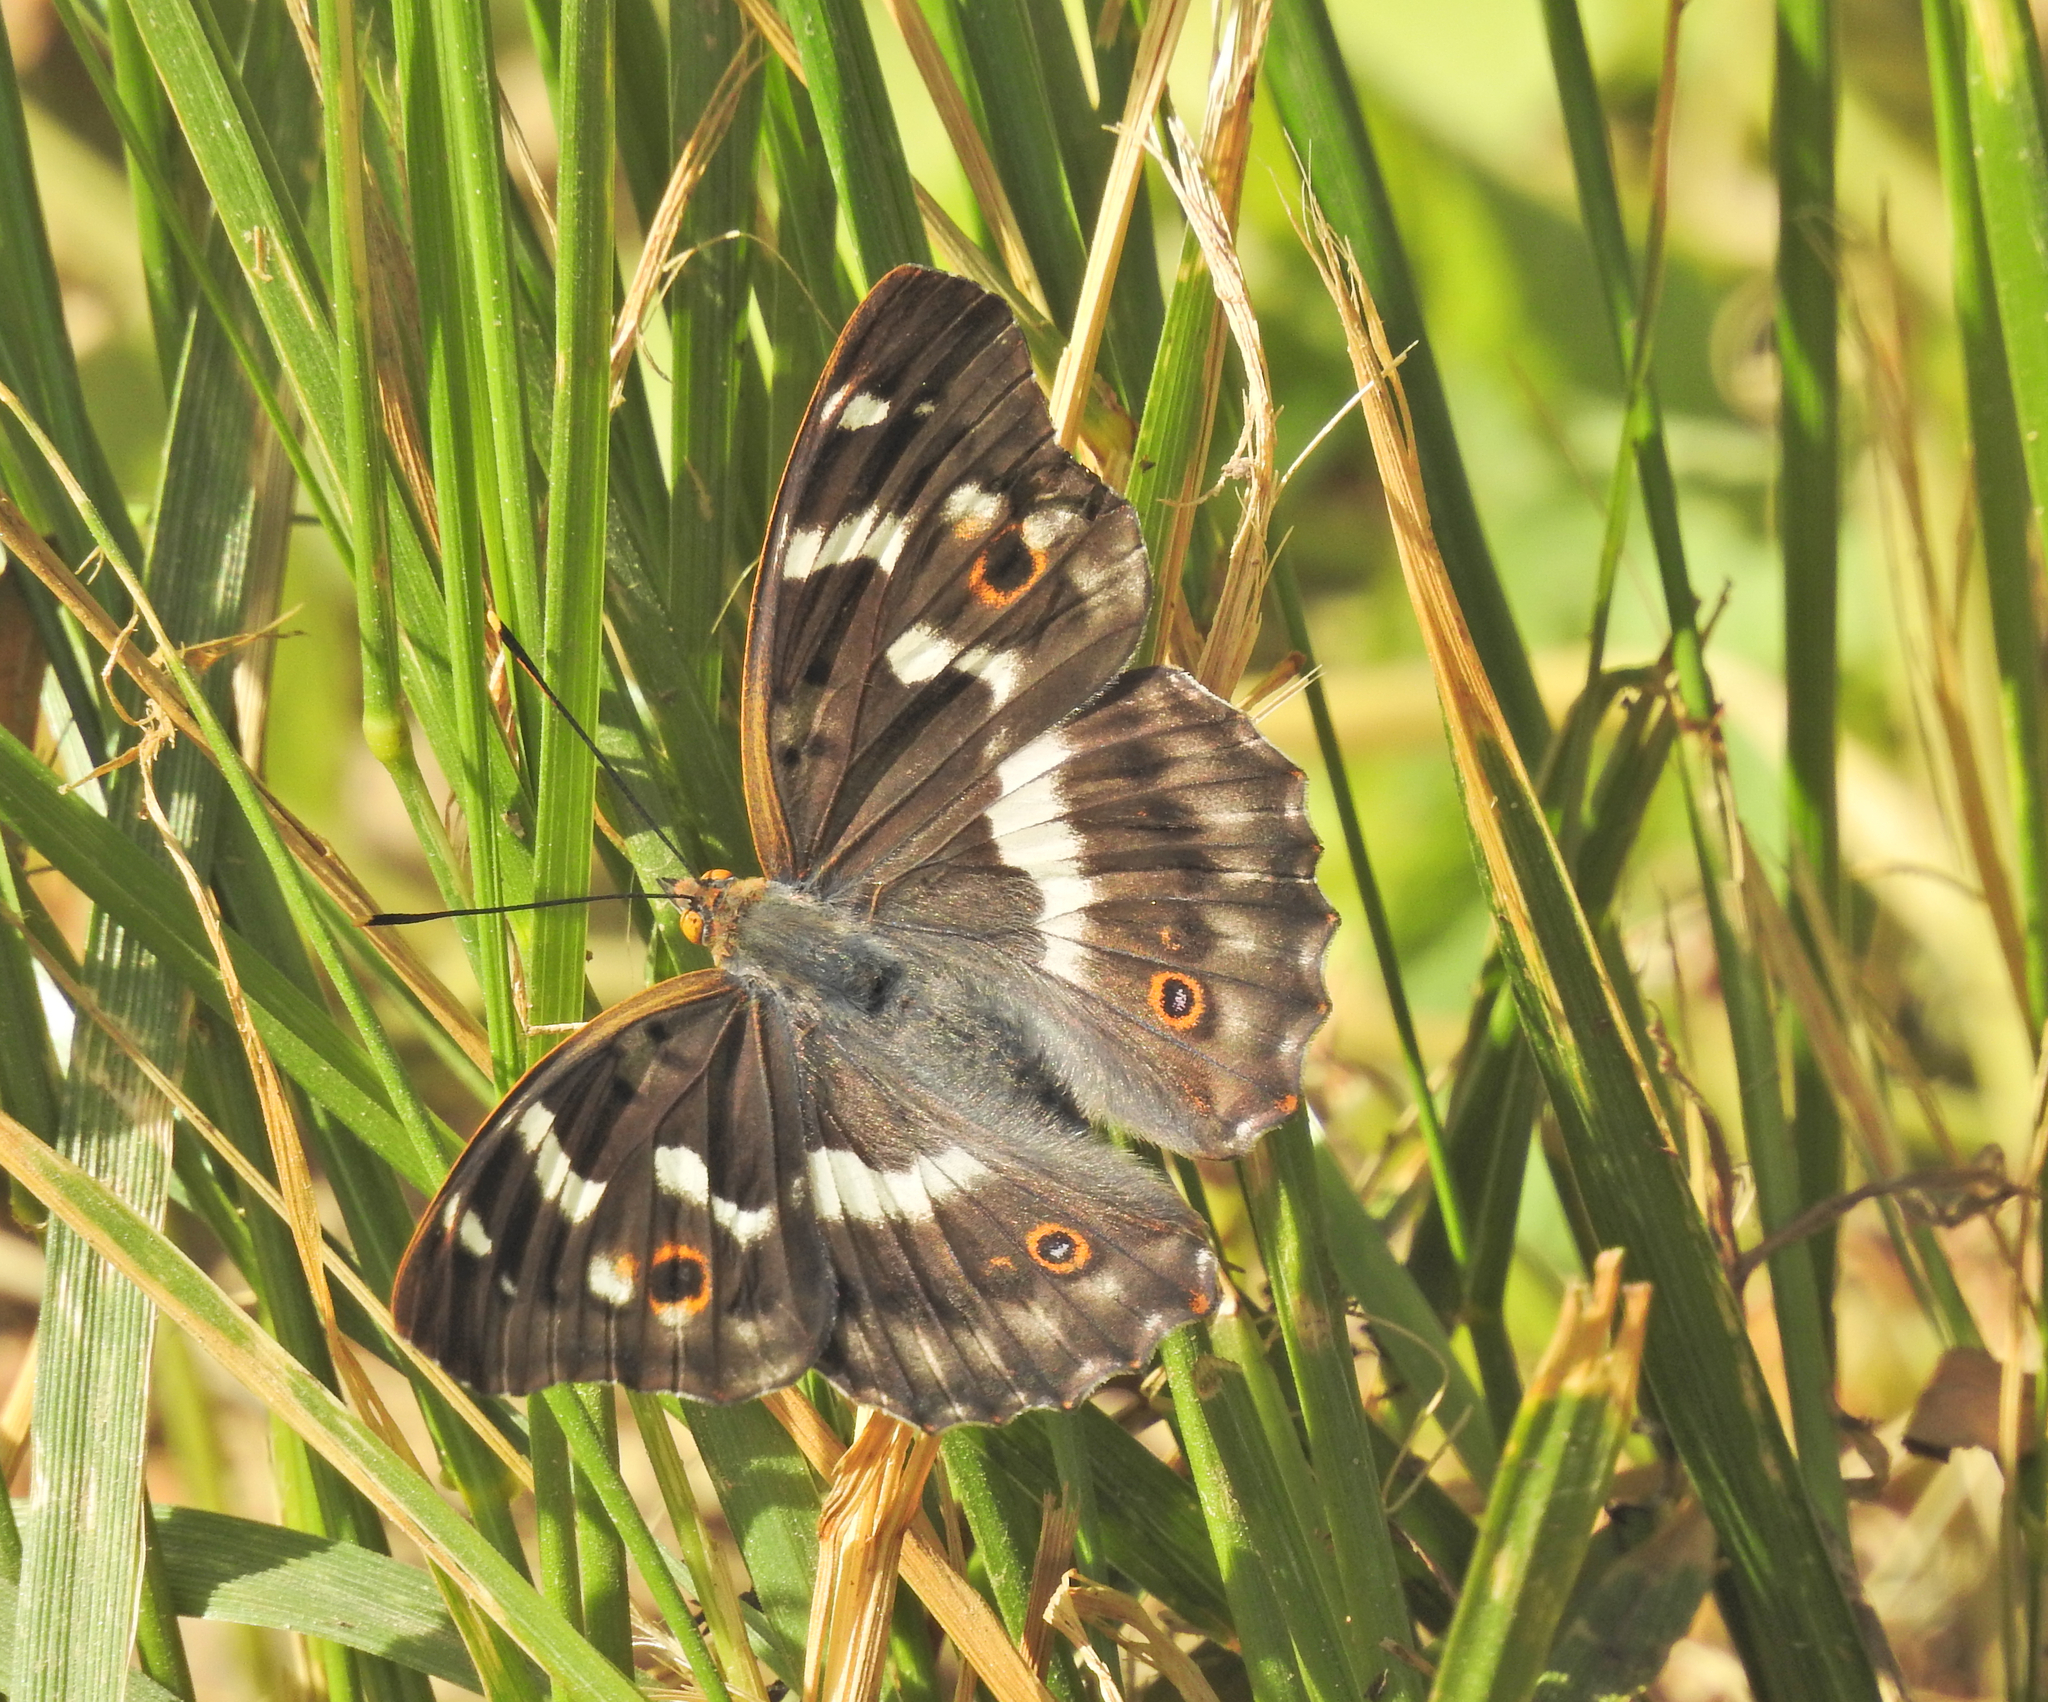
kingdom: Animalia
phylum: Arthropoda
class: Insecta
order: Lepidoptera
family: Nymphalidae
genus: Apatura
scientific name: Apatura ilia
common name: Lesser purple emperor
